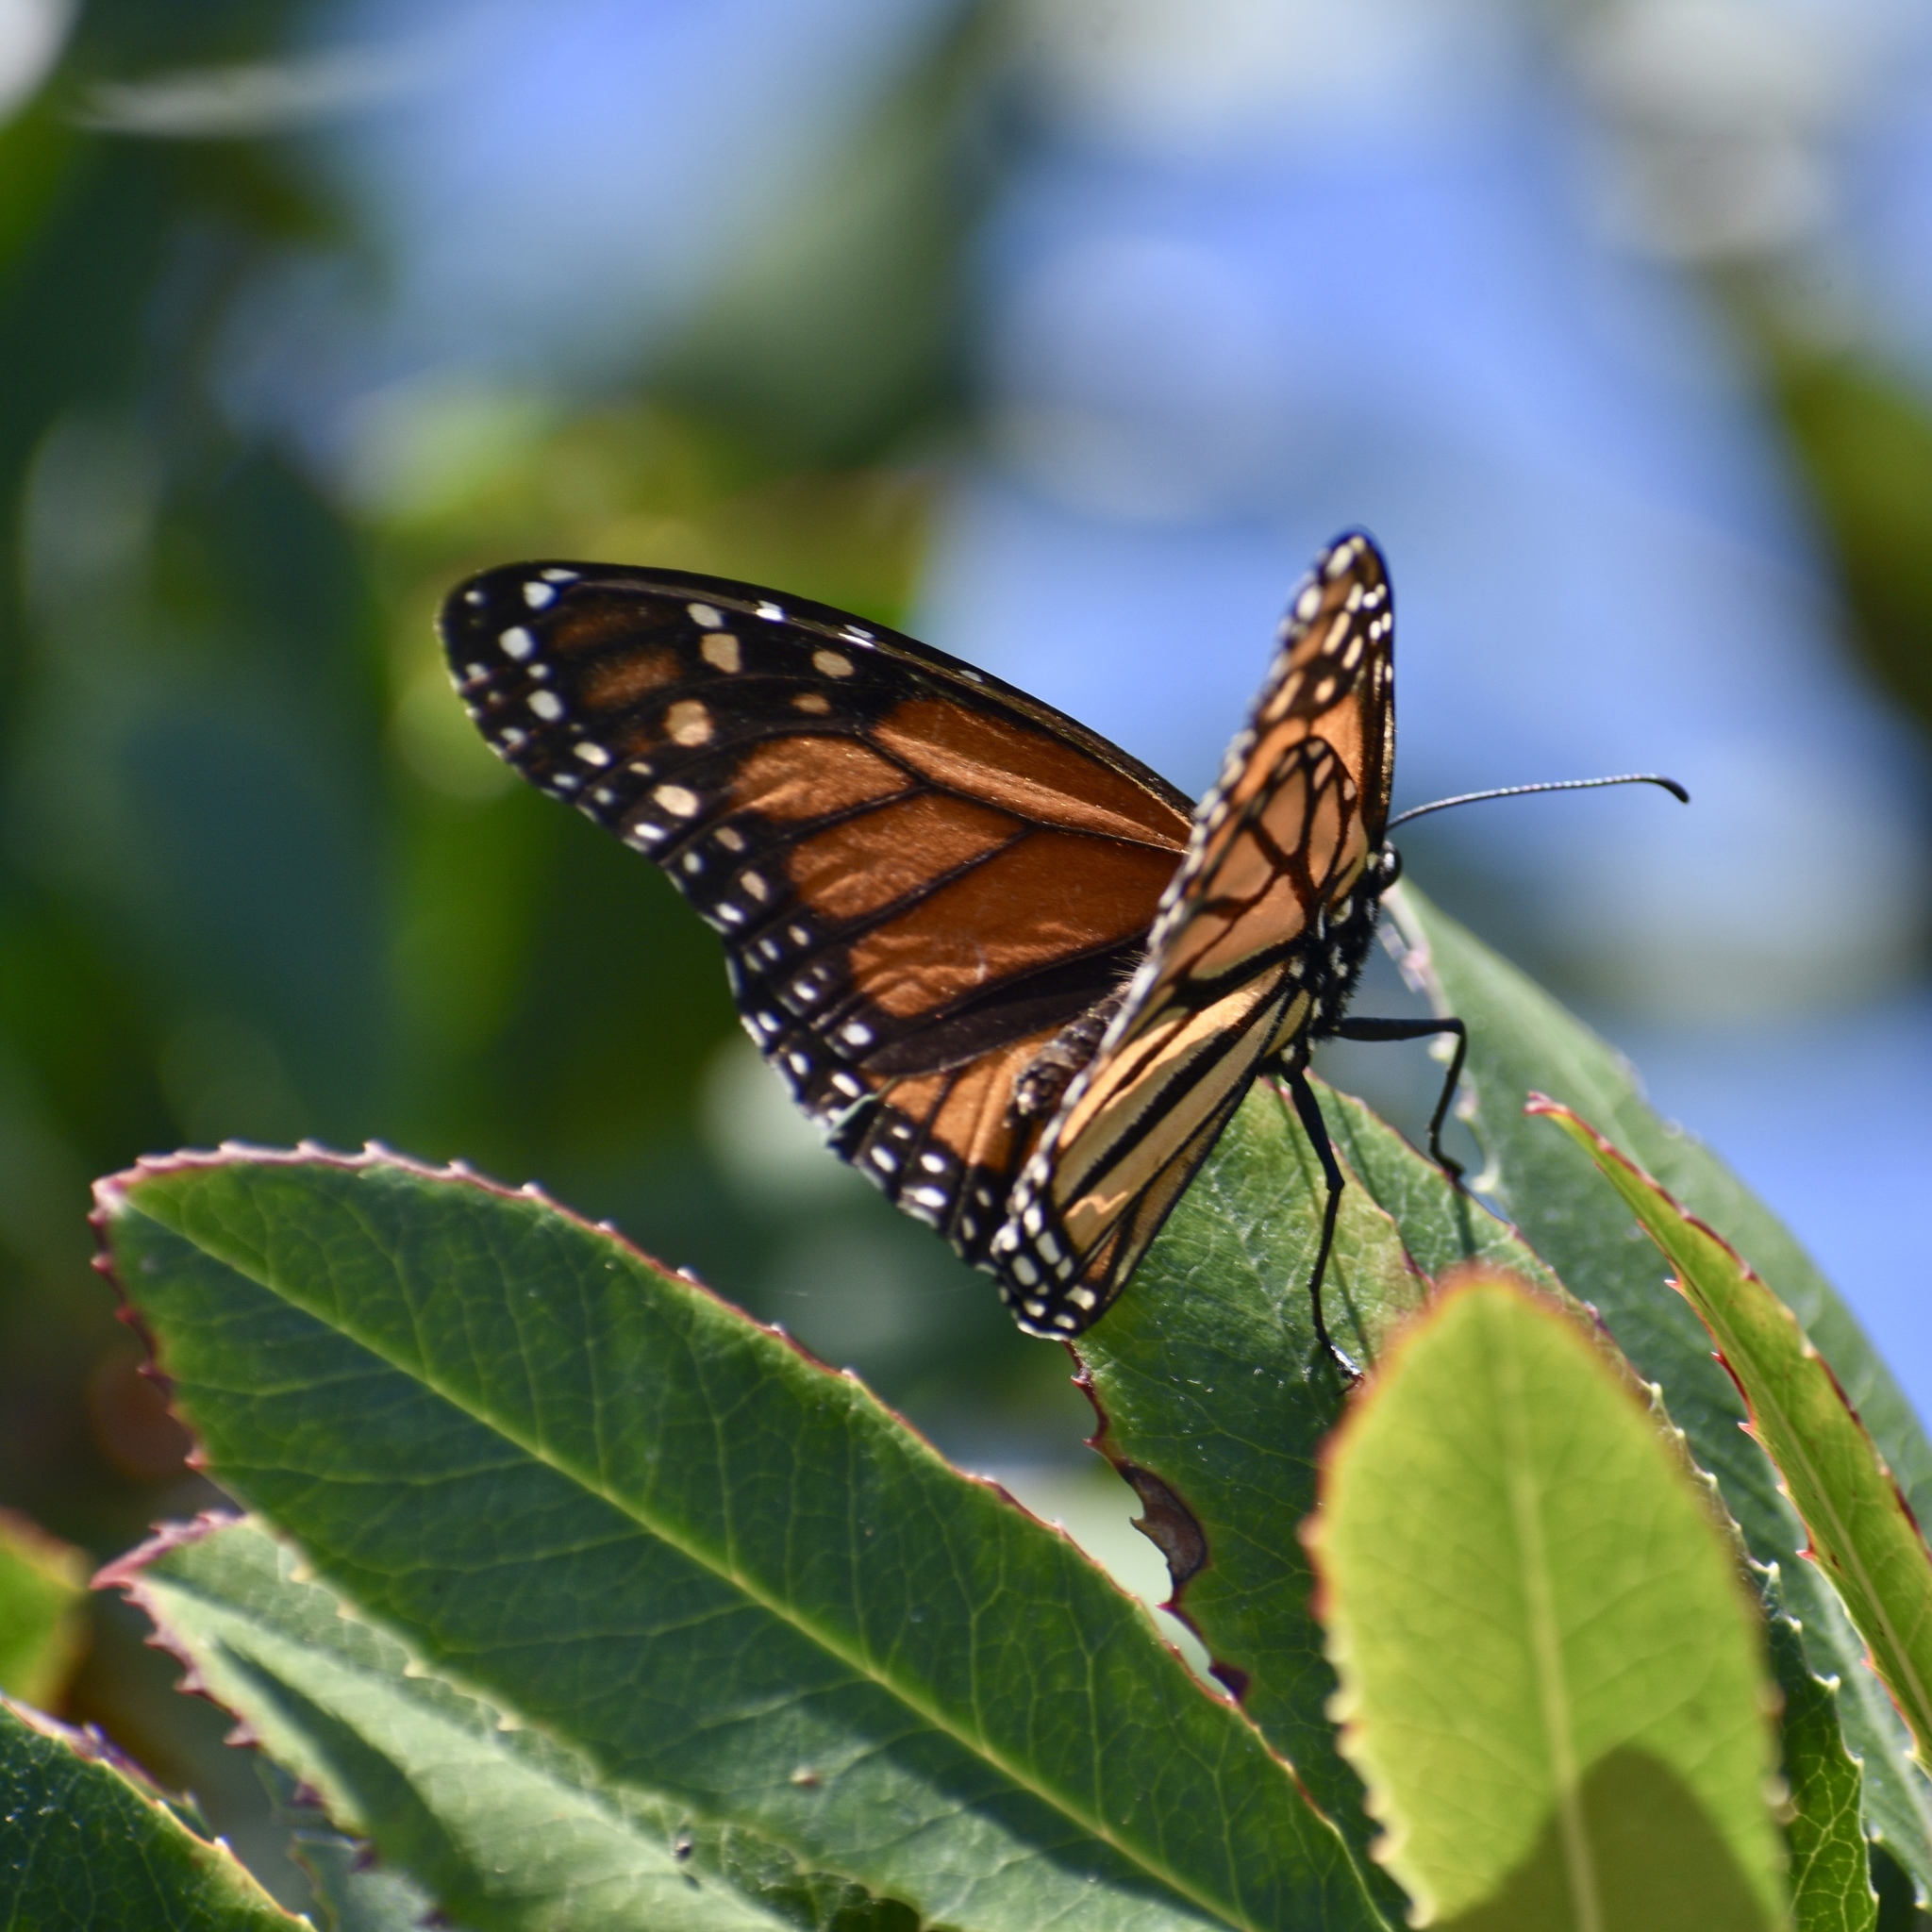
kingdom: Animalia
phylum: Arthropoda
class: Insecta
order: Lepidoptera
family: Nymphalidae
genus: Danaus
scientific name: Danaus plexippus
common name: Monarch
